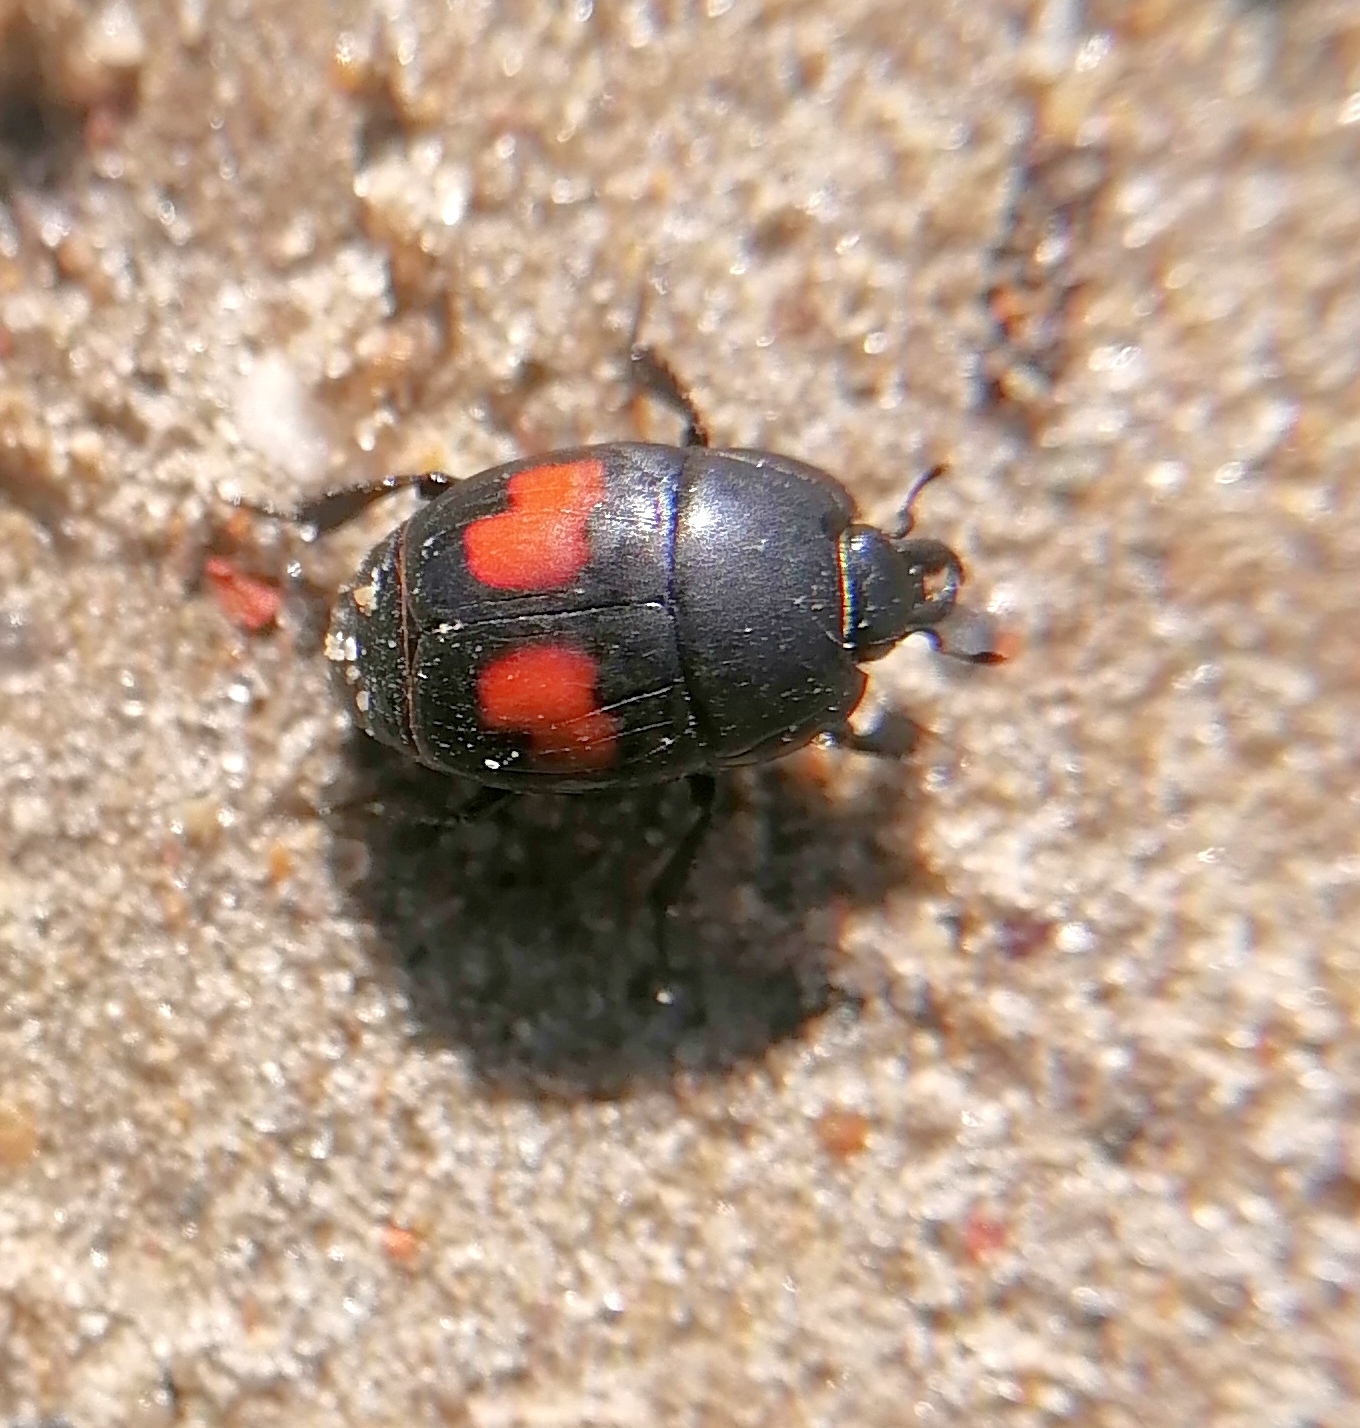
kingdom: Animalia
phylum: Arthropoda
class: Insecta
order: Coleoptera
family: Histeridae
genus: Margarinotus
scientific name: Margarinotus bipustulatus
